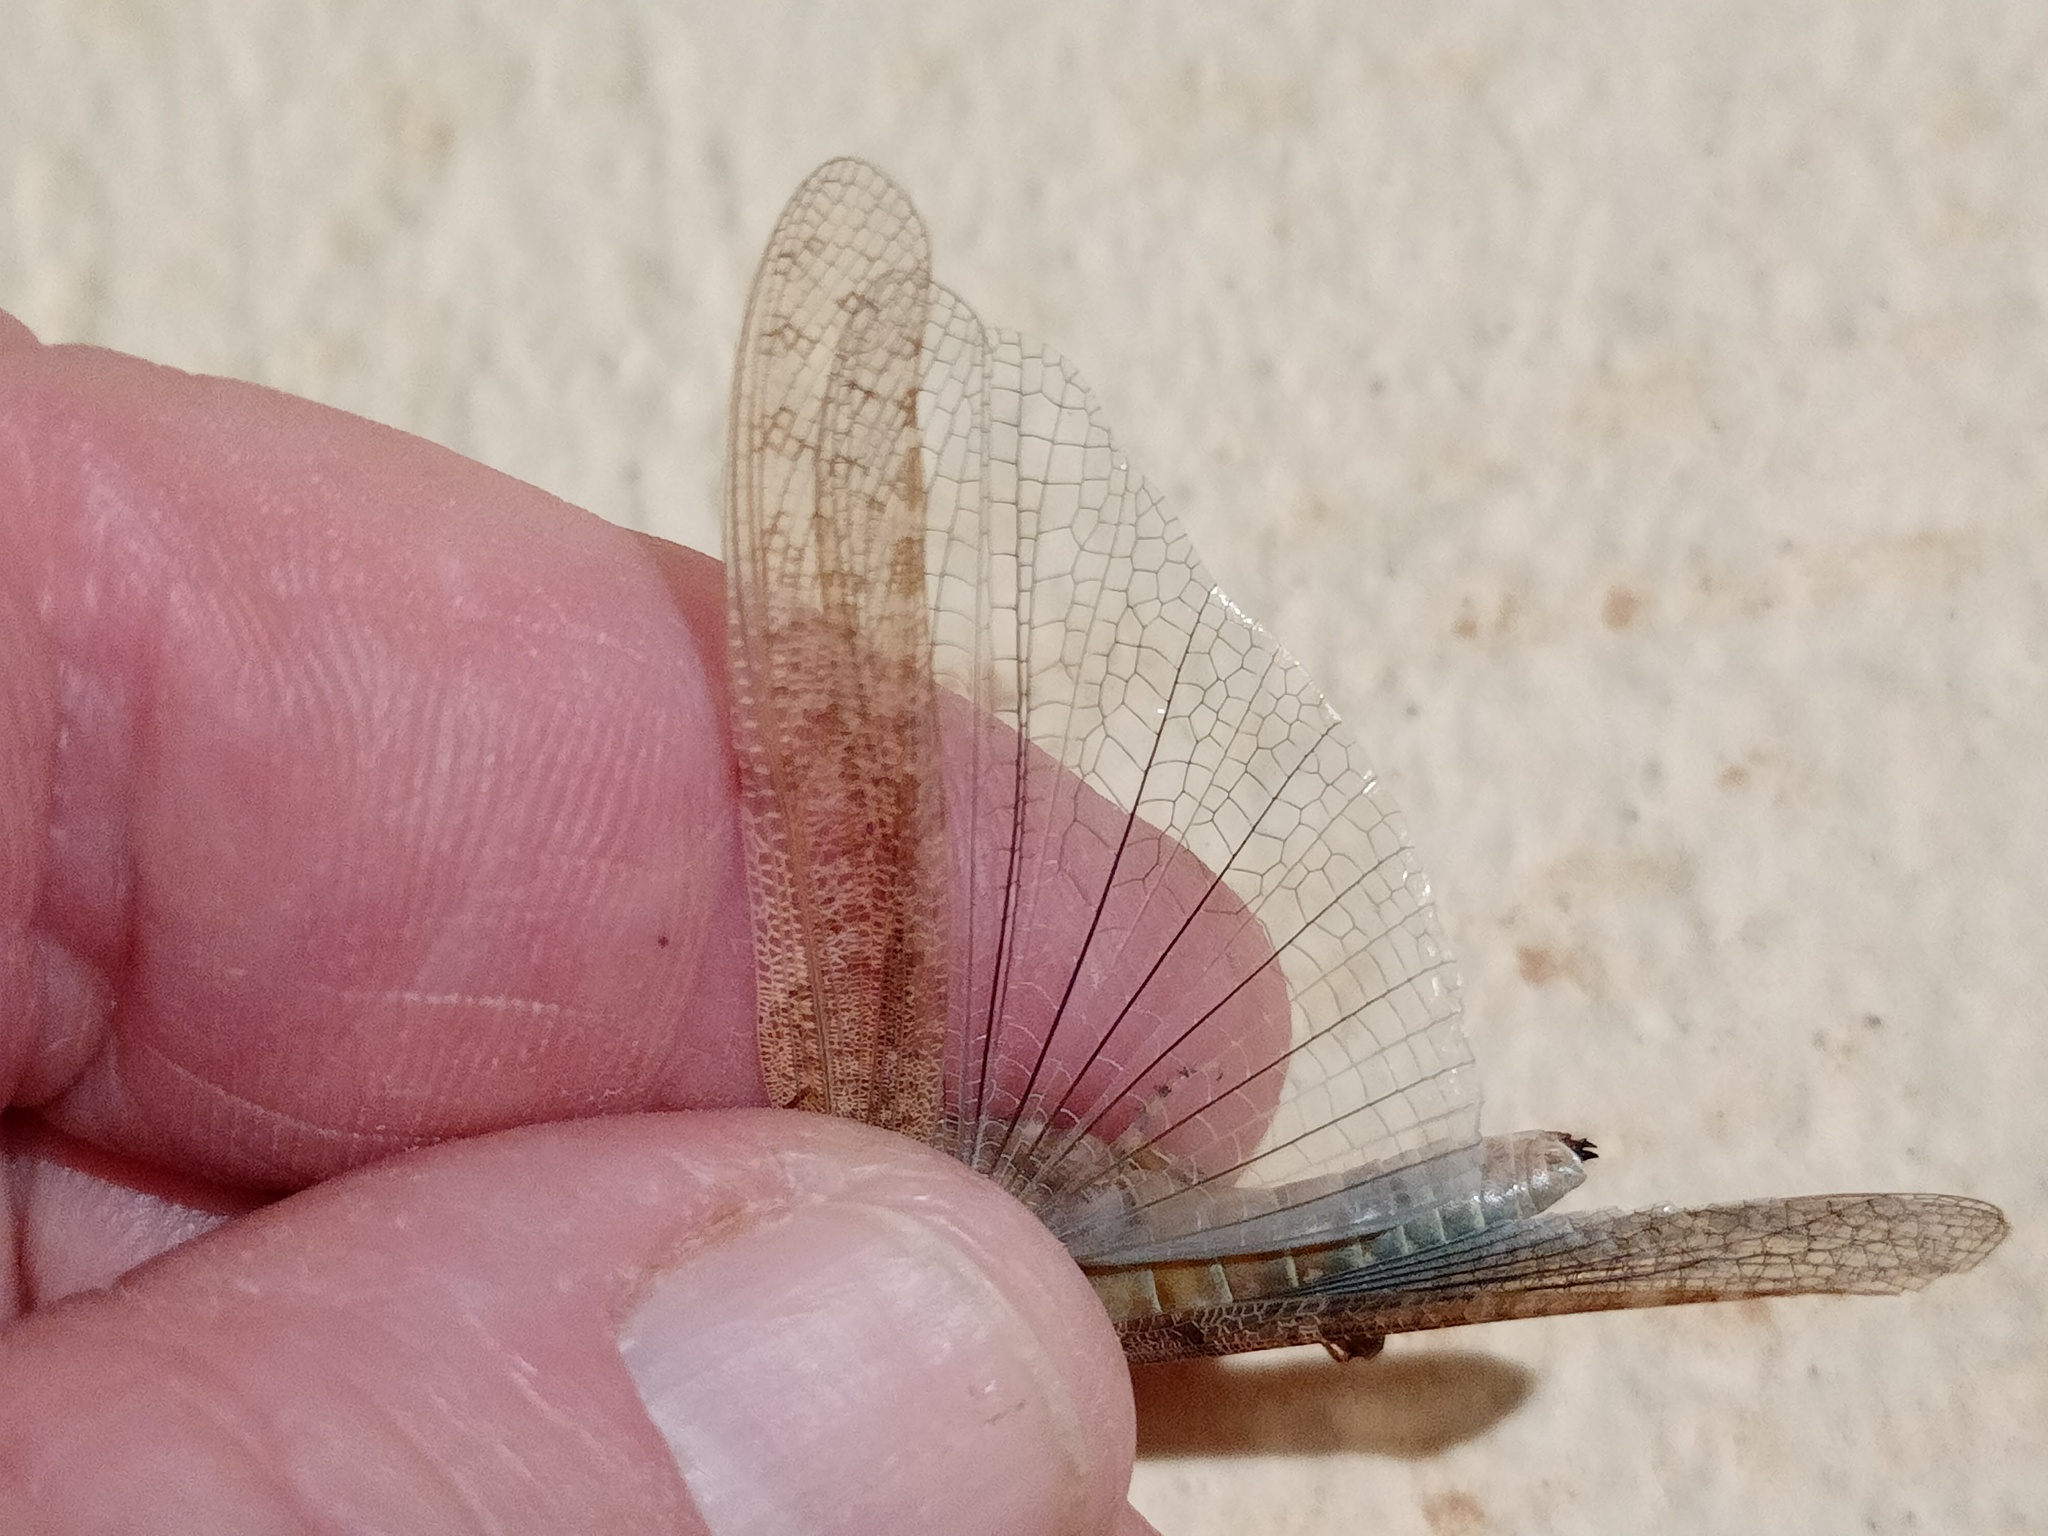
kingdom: Animalia
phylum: Arthropoda
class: Insecta
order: Orthoptera
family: Acrididae
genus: Sphingonotus
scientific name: Sphingonotus rubescens
